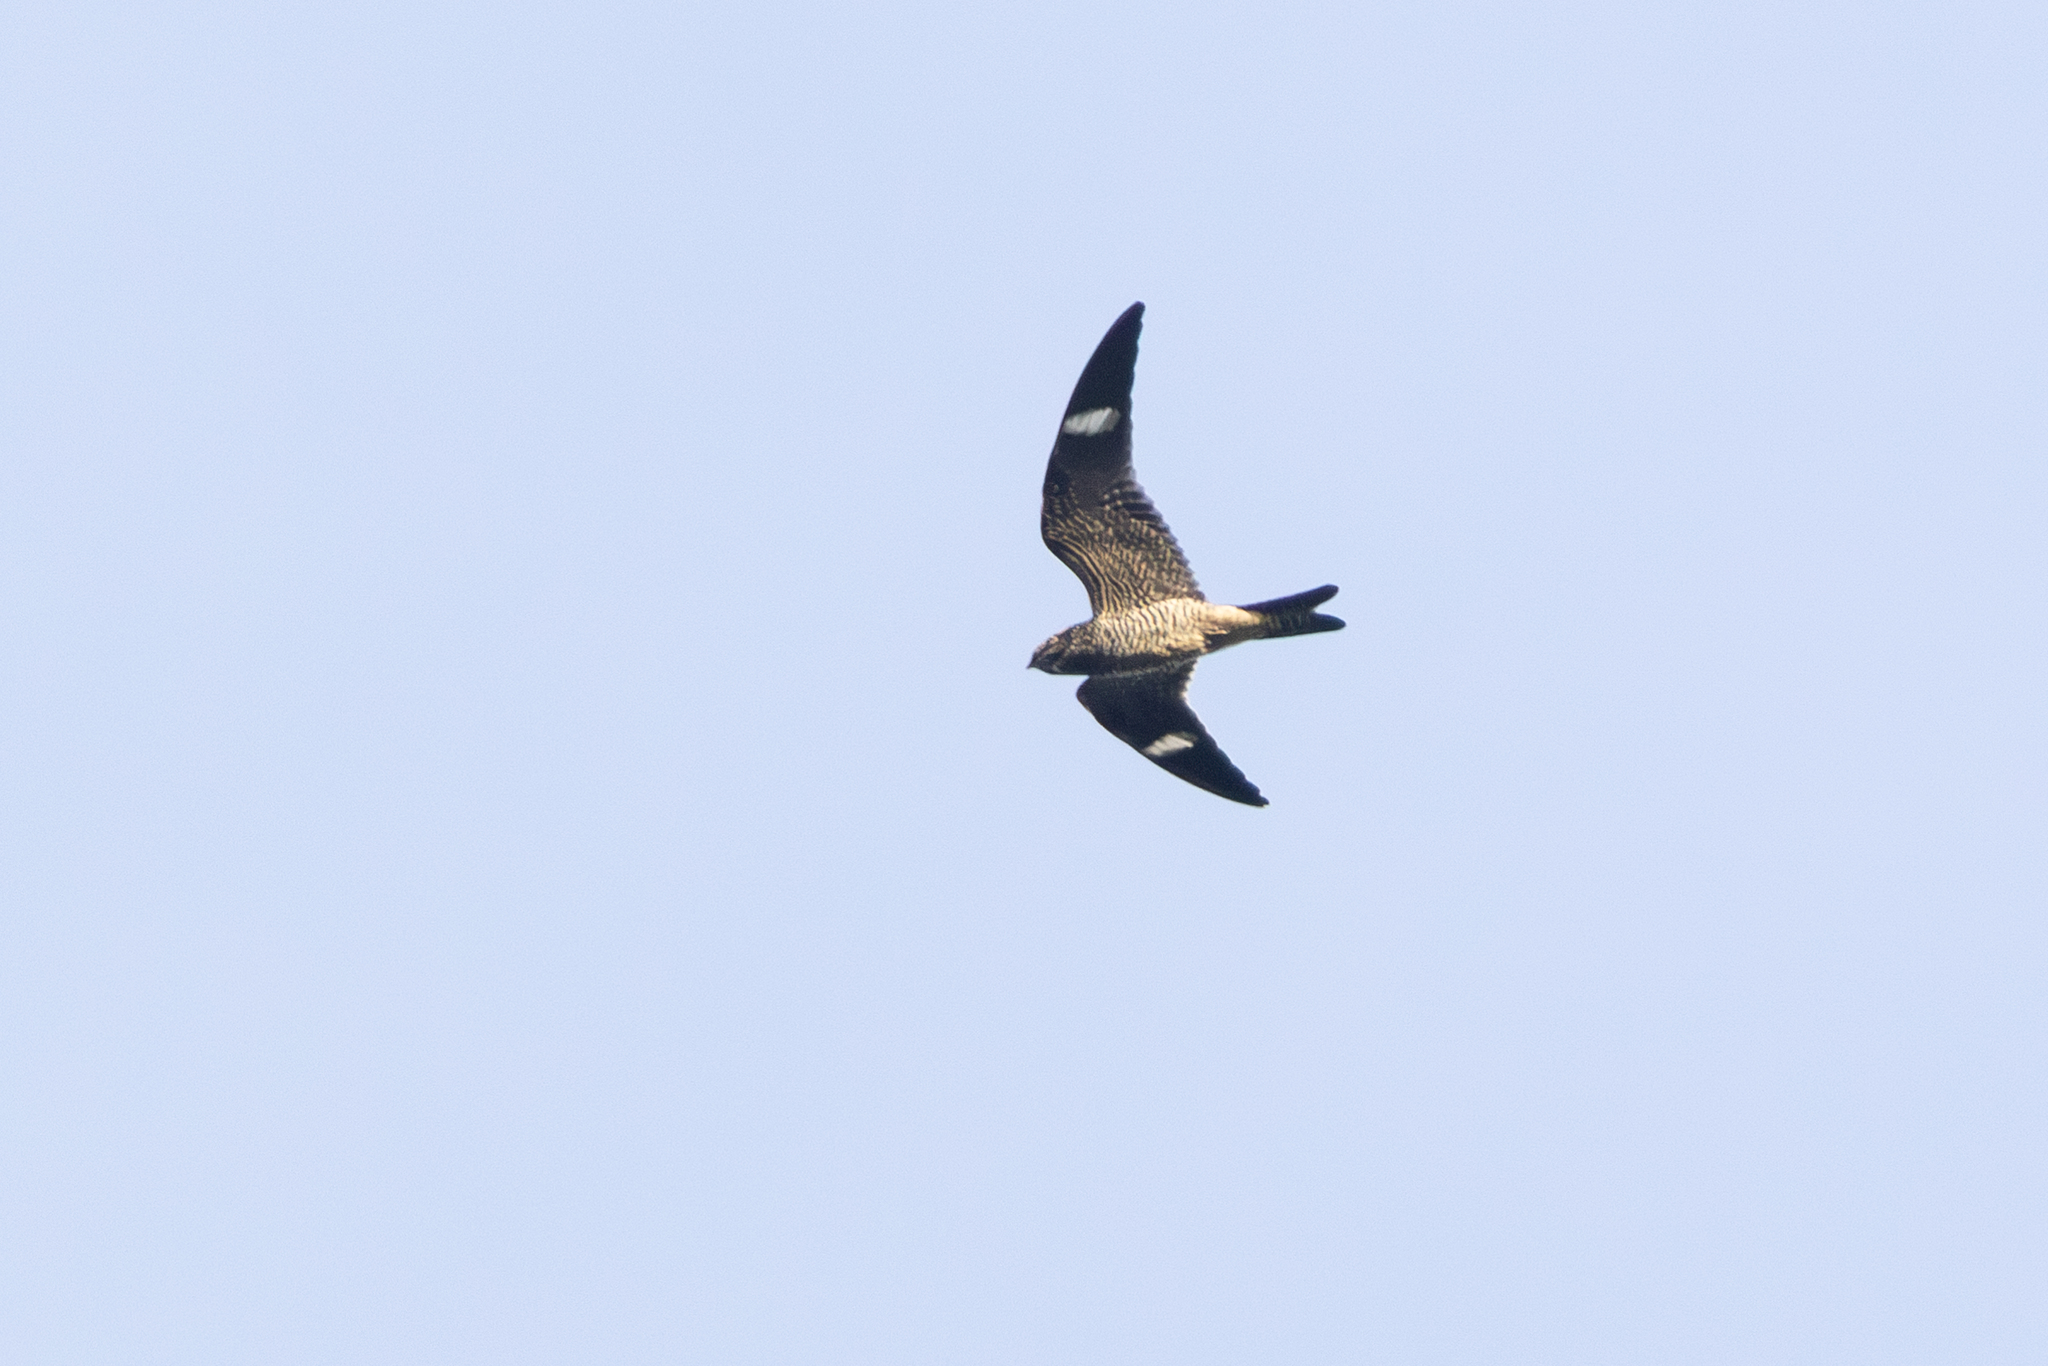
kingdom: Animalia
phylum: Chordata
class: Aves
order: Caprimulgiformes
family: Caprimulgidae
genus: Chordeiles
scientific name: Chordeiles minor
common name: Common nighthawk
